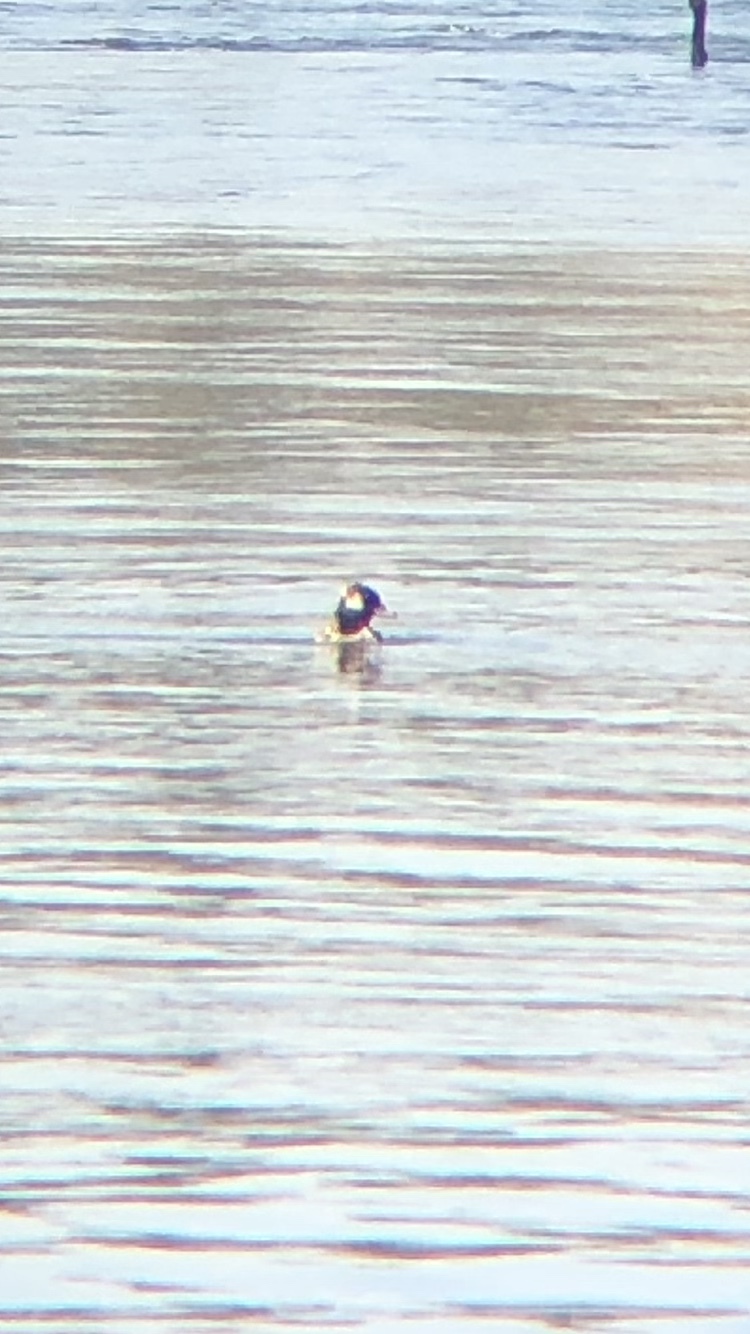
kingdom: Animalia
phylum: Chordata
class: Aves
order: Anseriformes
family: Anatidae
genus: Bucephala
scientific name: Bucephala albeola
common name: Bufflehead
